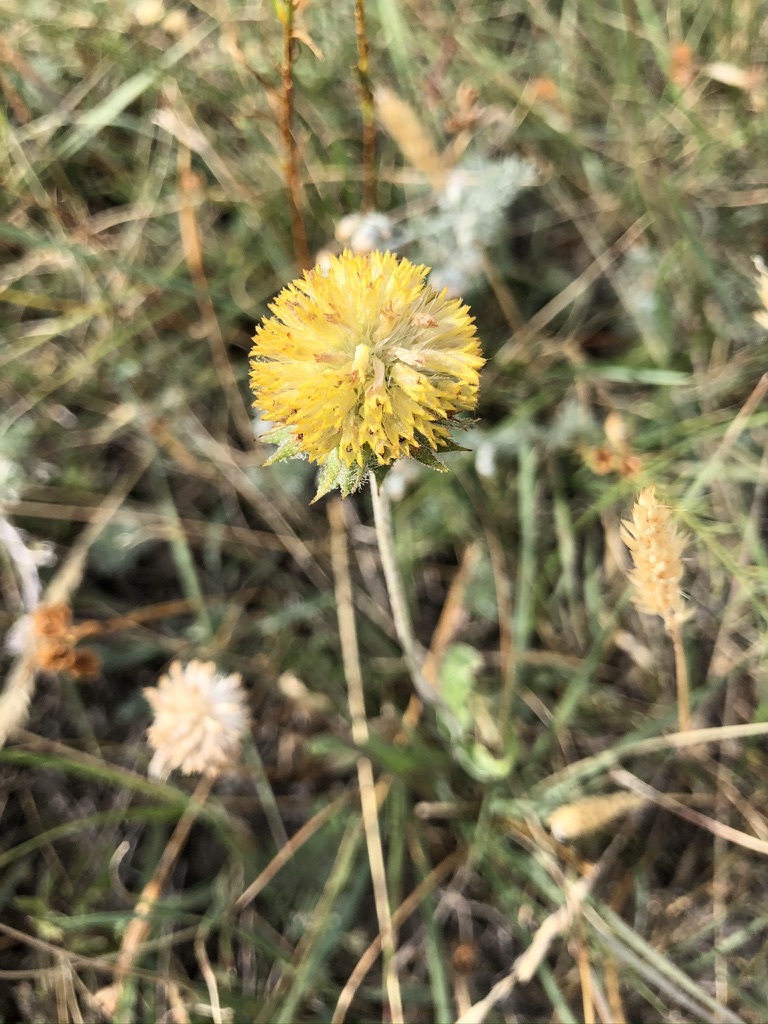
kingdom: Plantae
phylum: Tracheophyta
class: Magnoliopsida
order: Asterales
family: Asteraceae
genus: Gaillardia
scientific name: Gaillardia aristata
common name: Blanket-flower
